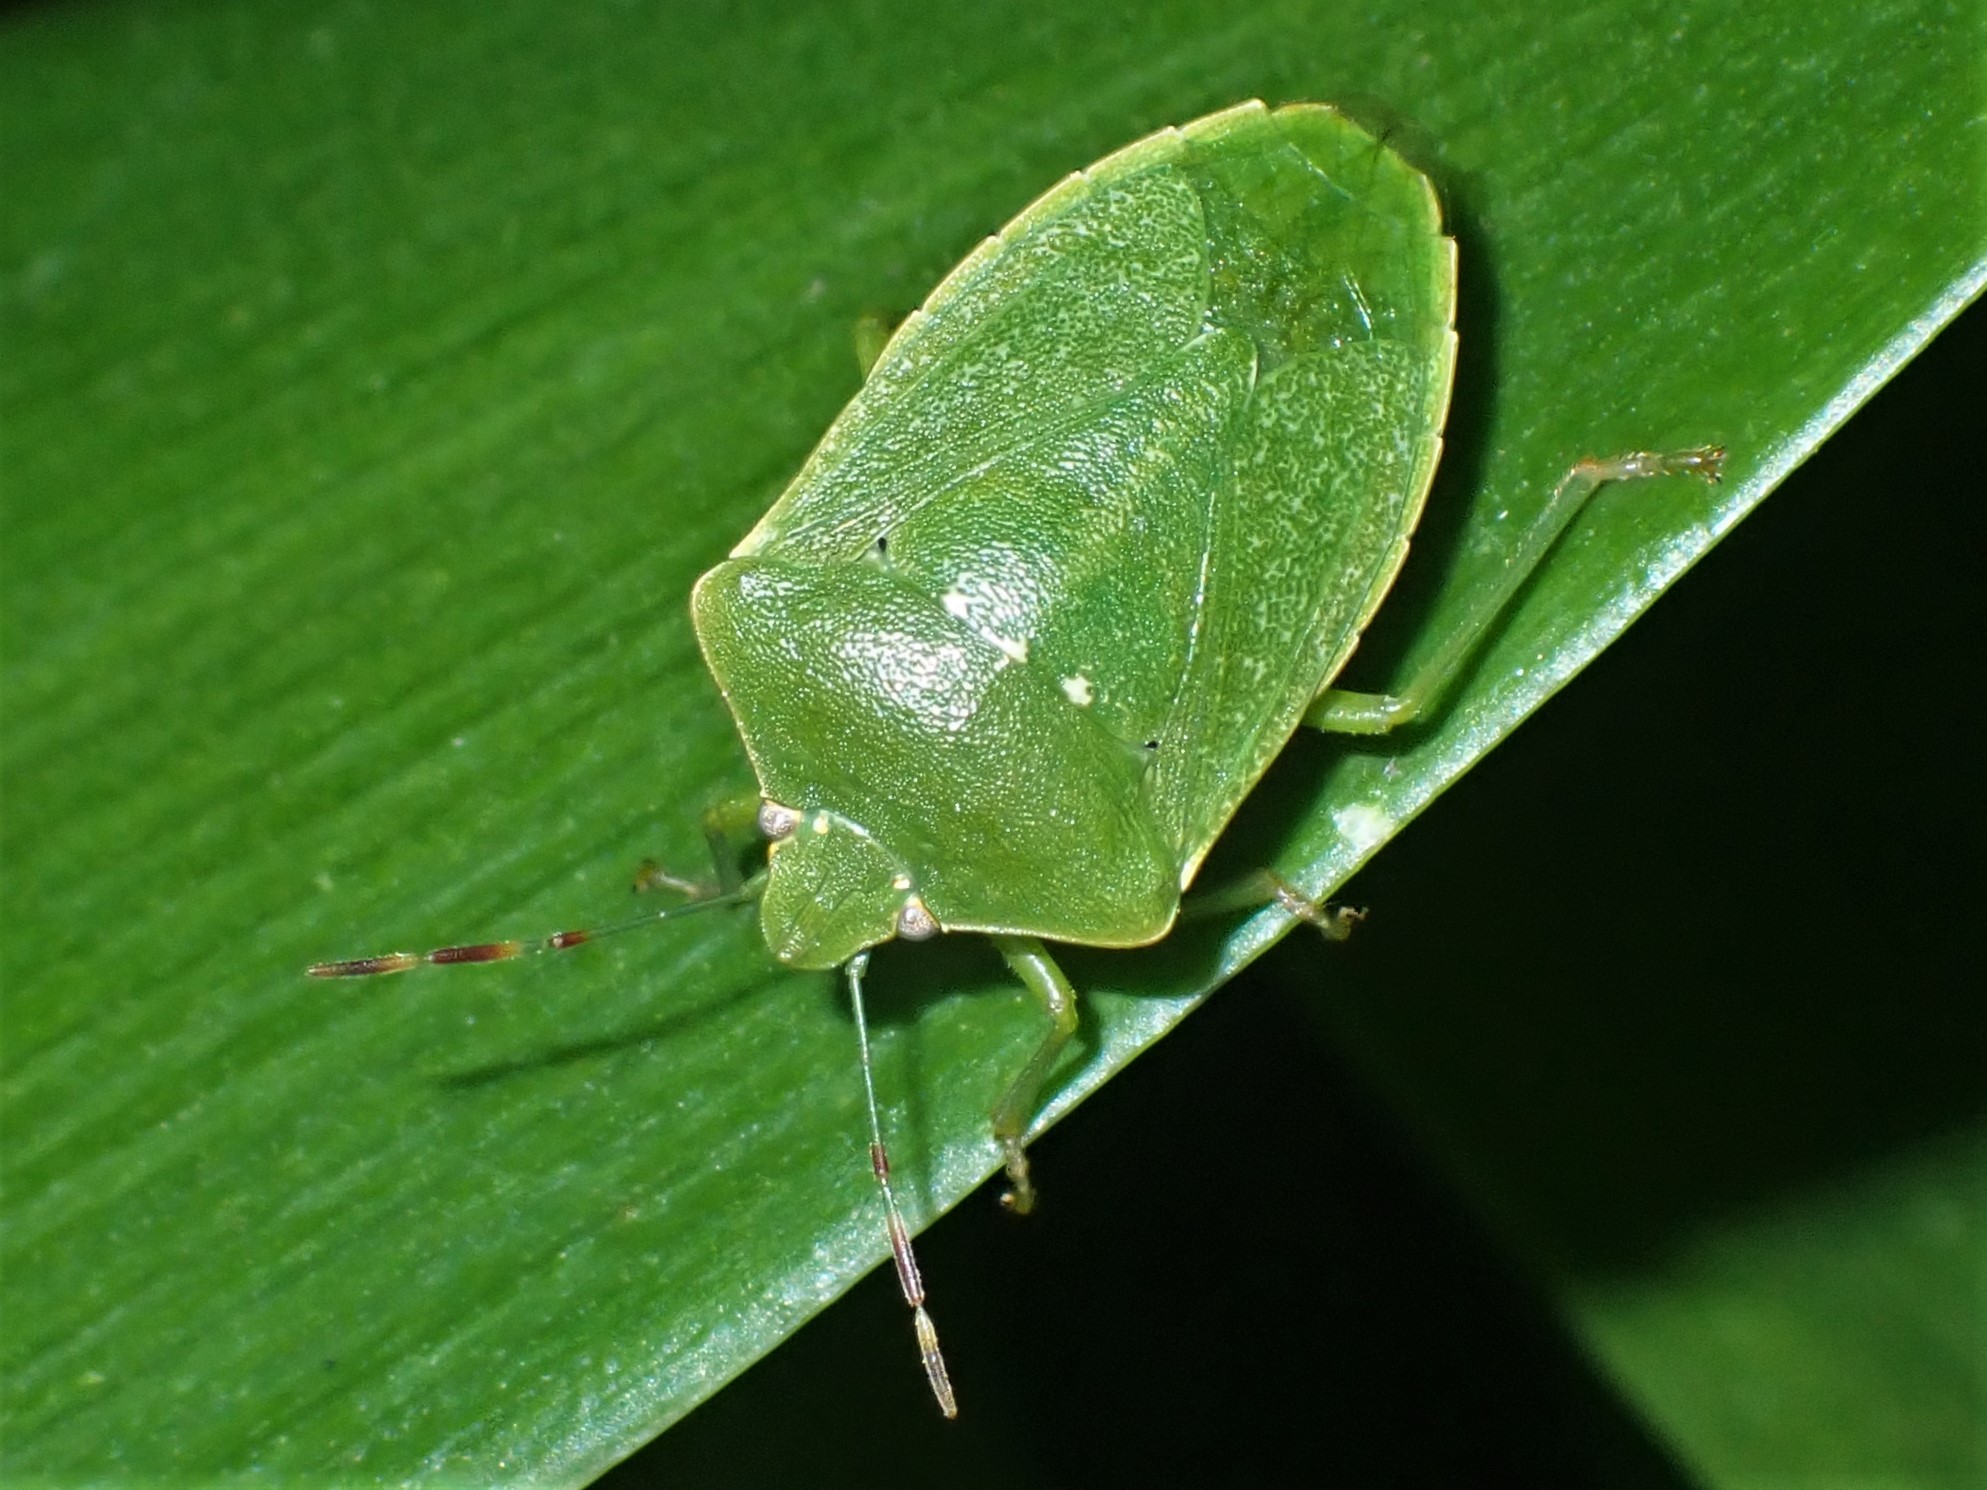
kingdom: Animalia
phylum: Arthropoda
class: Insecta
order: Hemiptera
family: Pentatomidae
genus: Nezara
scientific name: Nezara viridula
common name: Southern green stink bug
